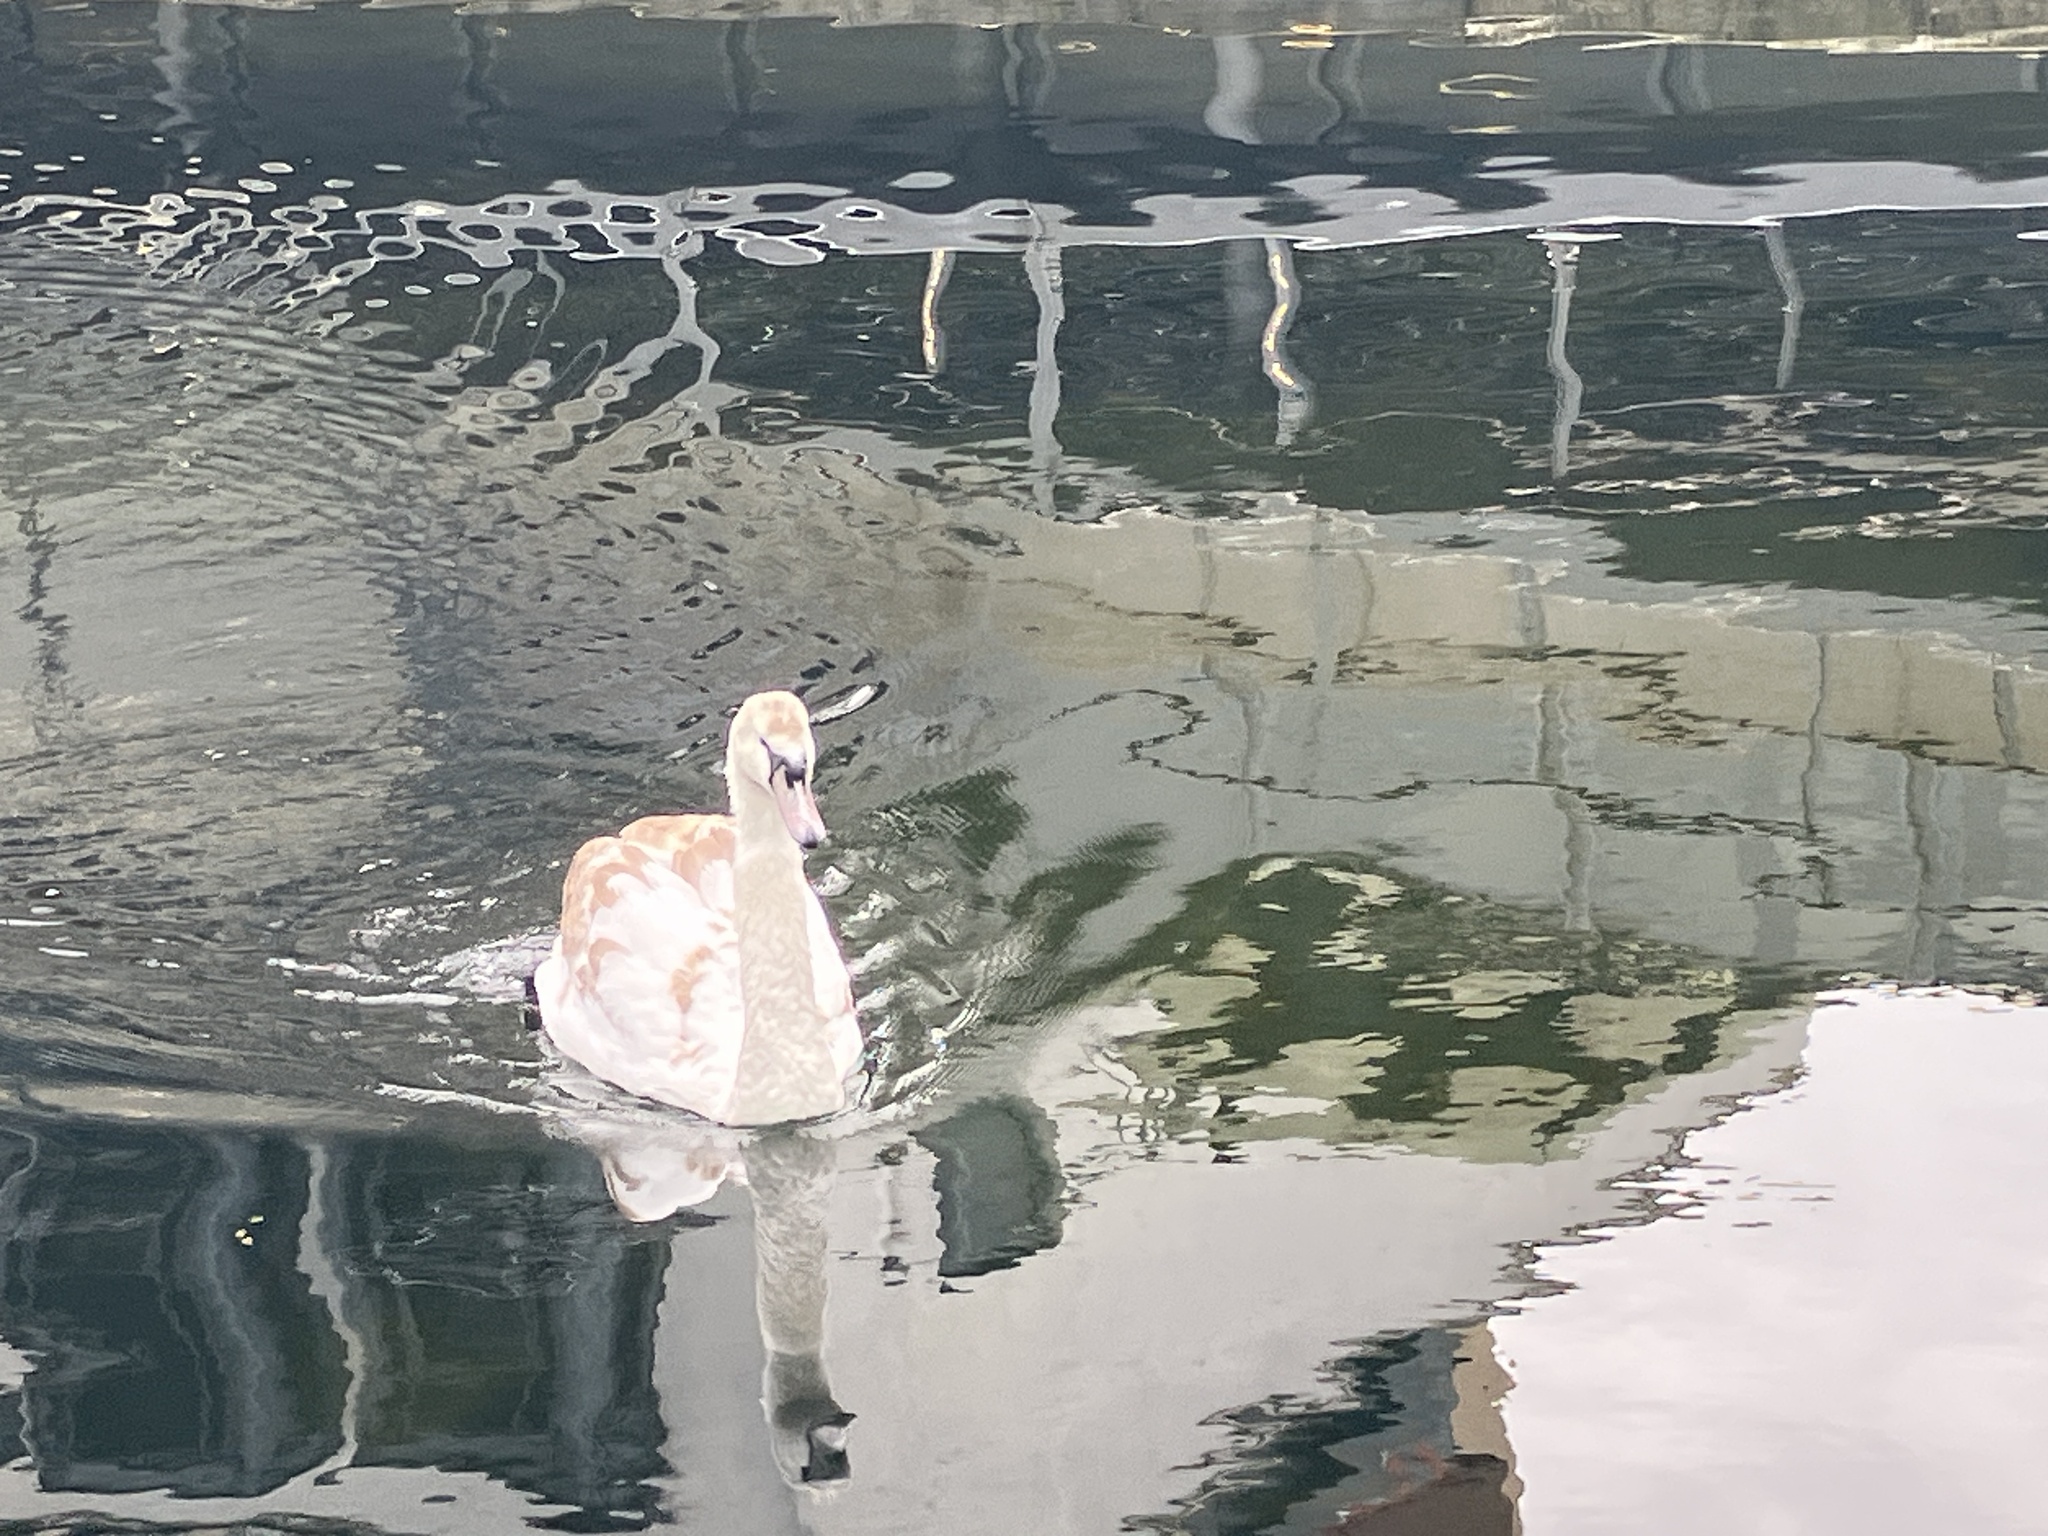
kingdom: Animalia
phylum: Chordata
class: Aves
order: Anseriformes
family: Anatidae
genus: Cygnus
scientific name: Cygnus olor
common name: Mute swan
